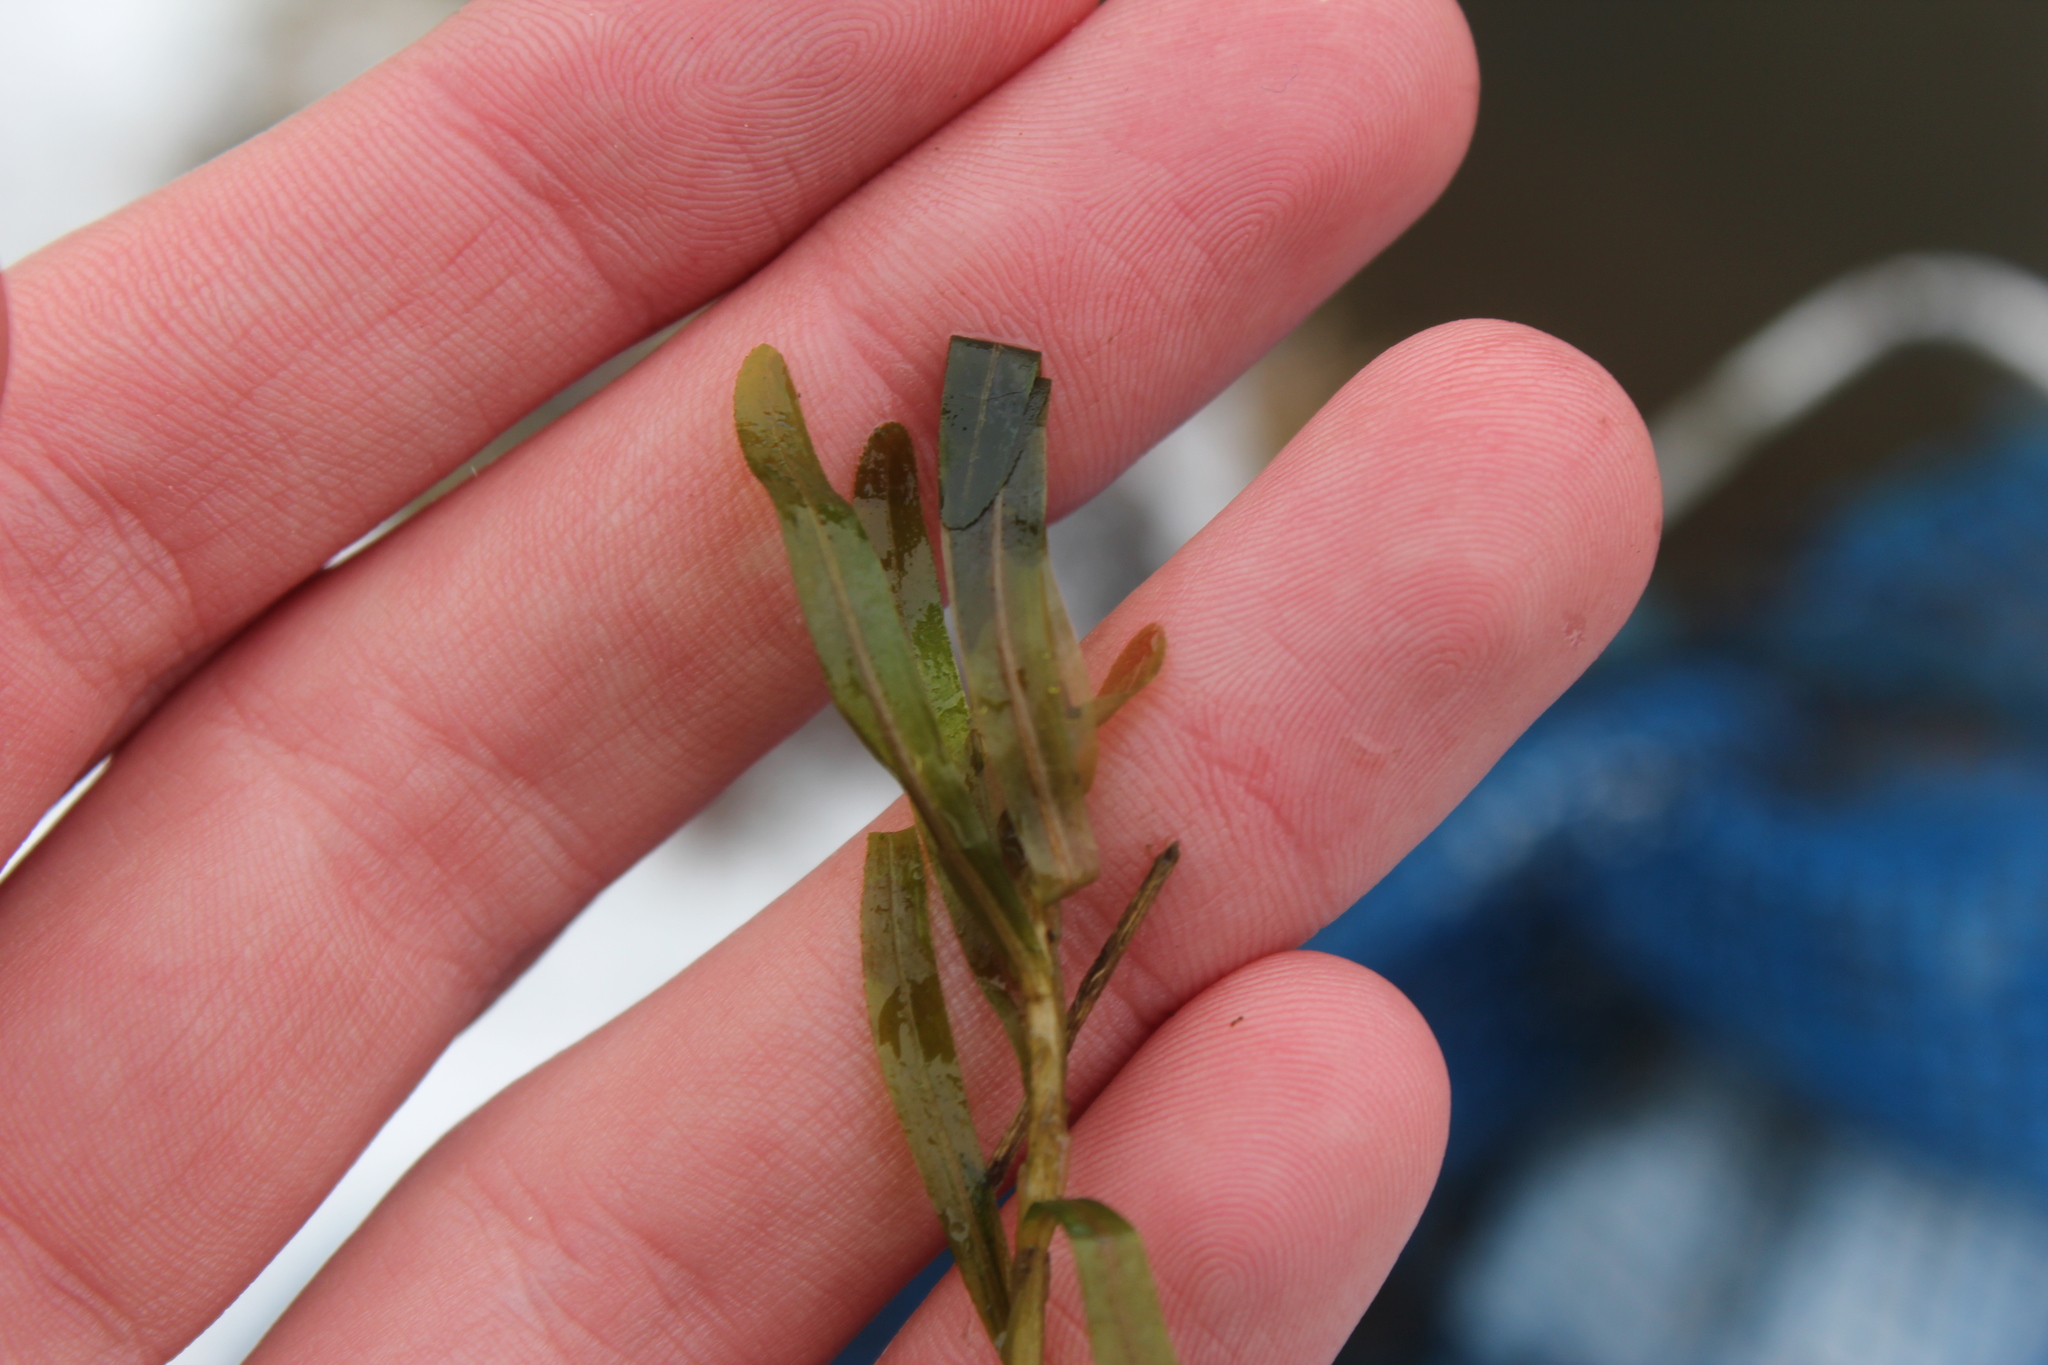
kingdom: Plantae
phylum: Tracheophyta
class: Liliopsida
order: Alismatales
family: Potamogetonaceae
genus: Potamogeton
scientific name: Potamogeton crispus
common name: Curled pondweed
